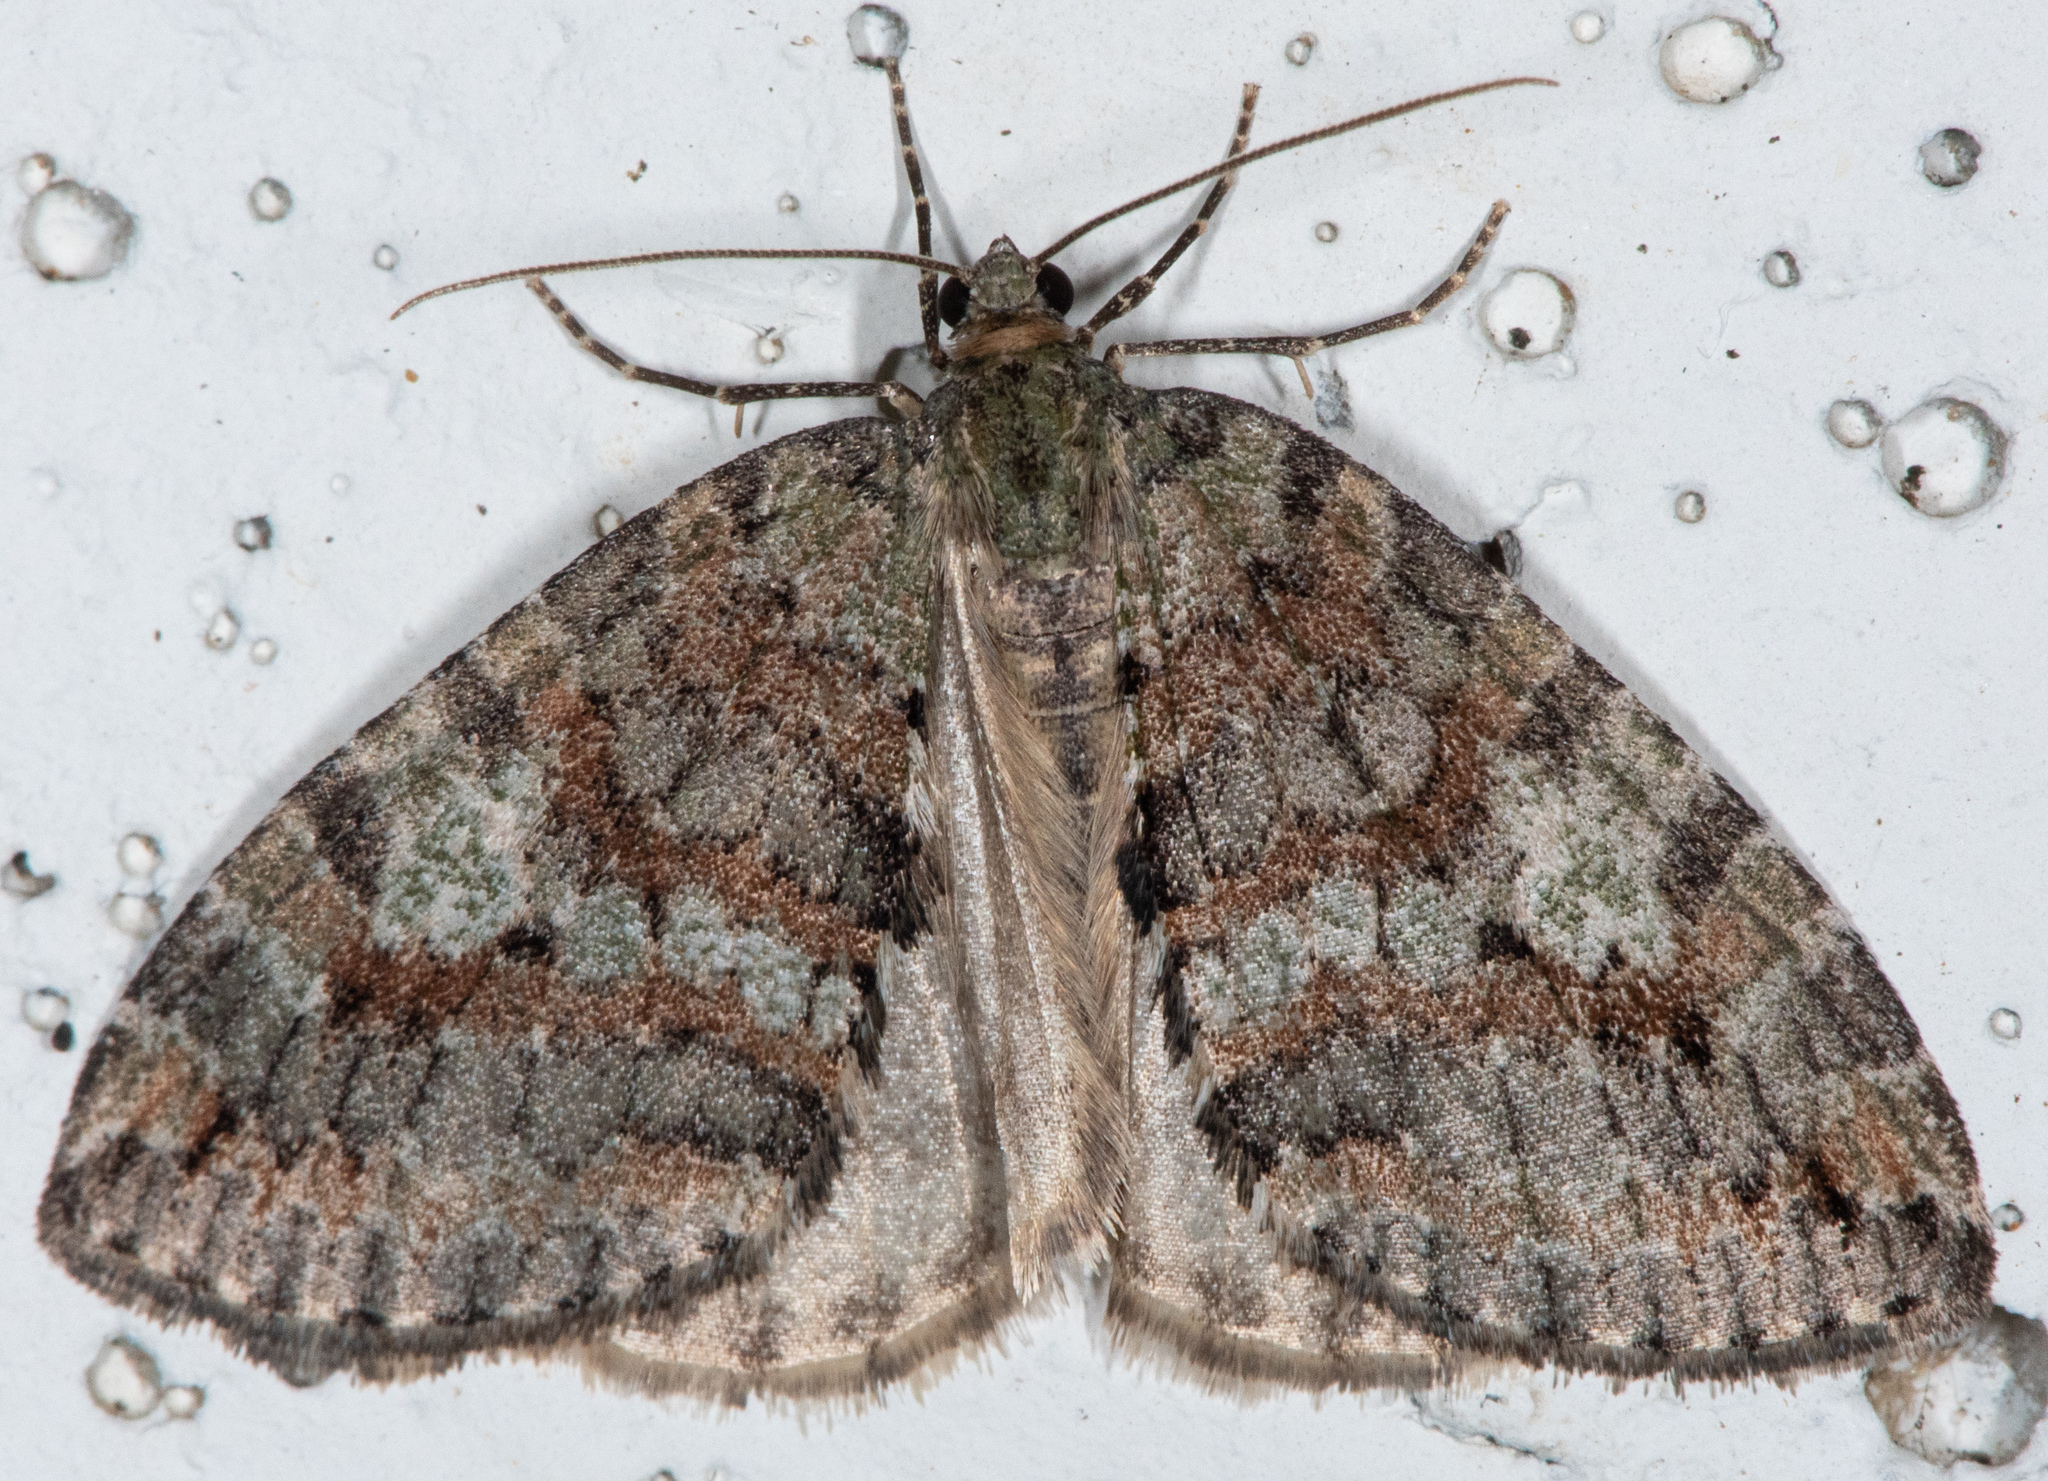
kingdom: Animalia
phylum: Arthropoda
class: Insecta
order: Lepidoptera
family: Geometridae
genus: Hydriomena
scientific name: Hydriomena nubilofasciata
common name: Oak winter highflier moth
